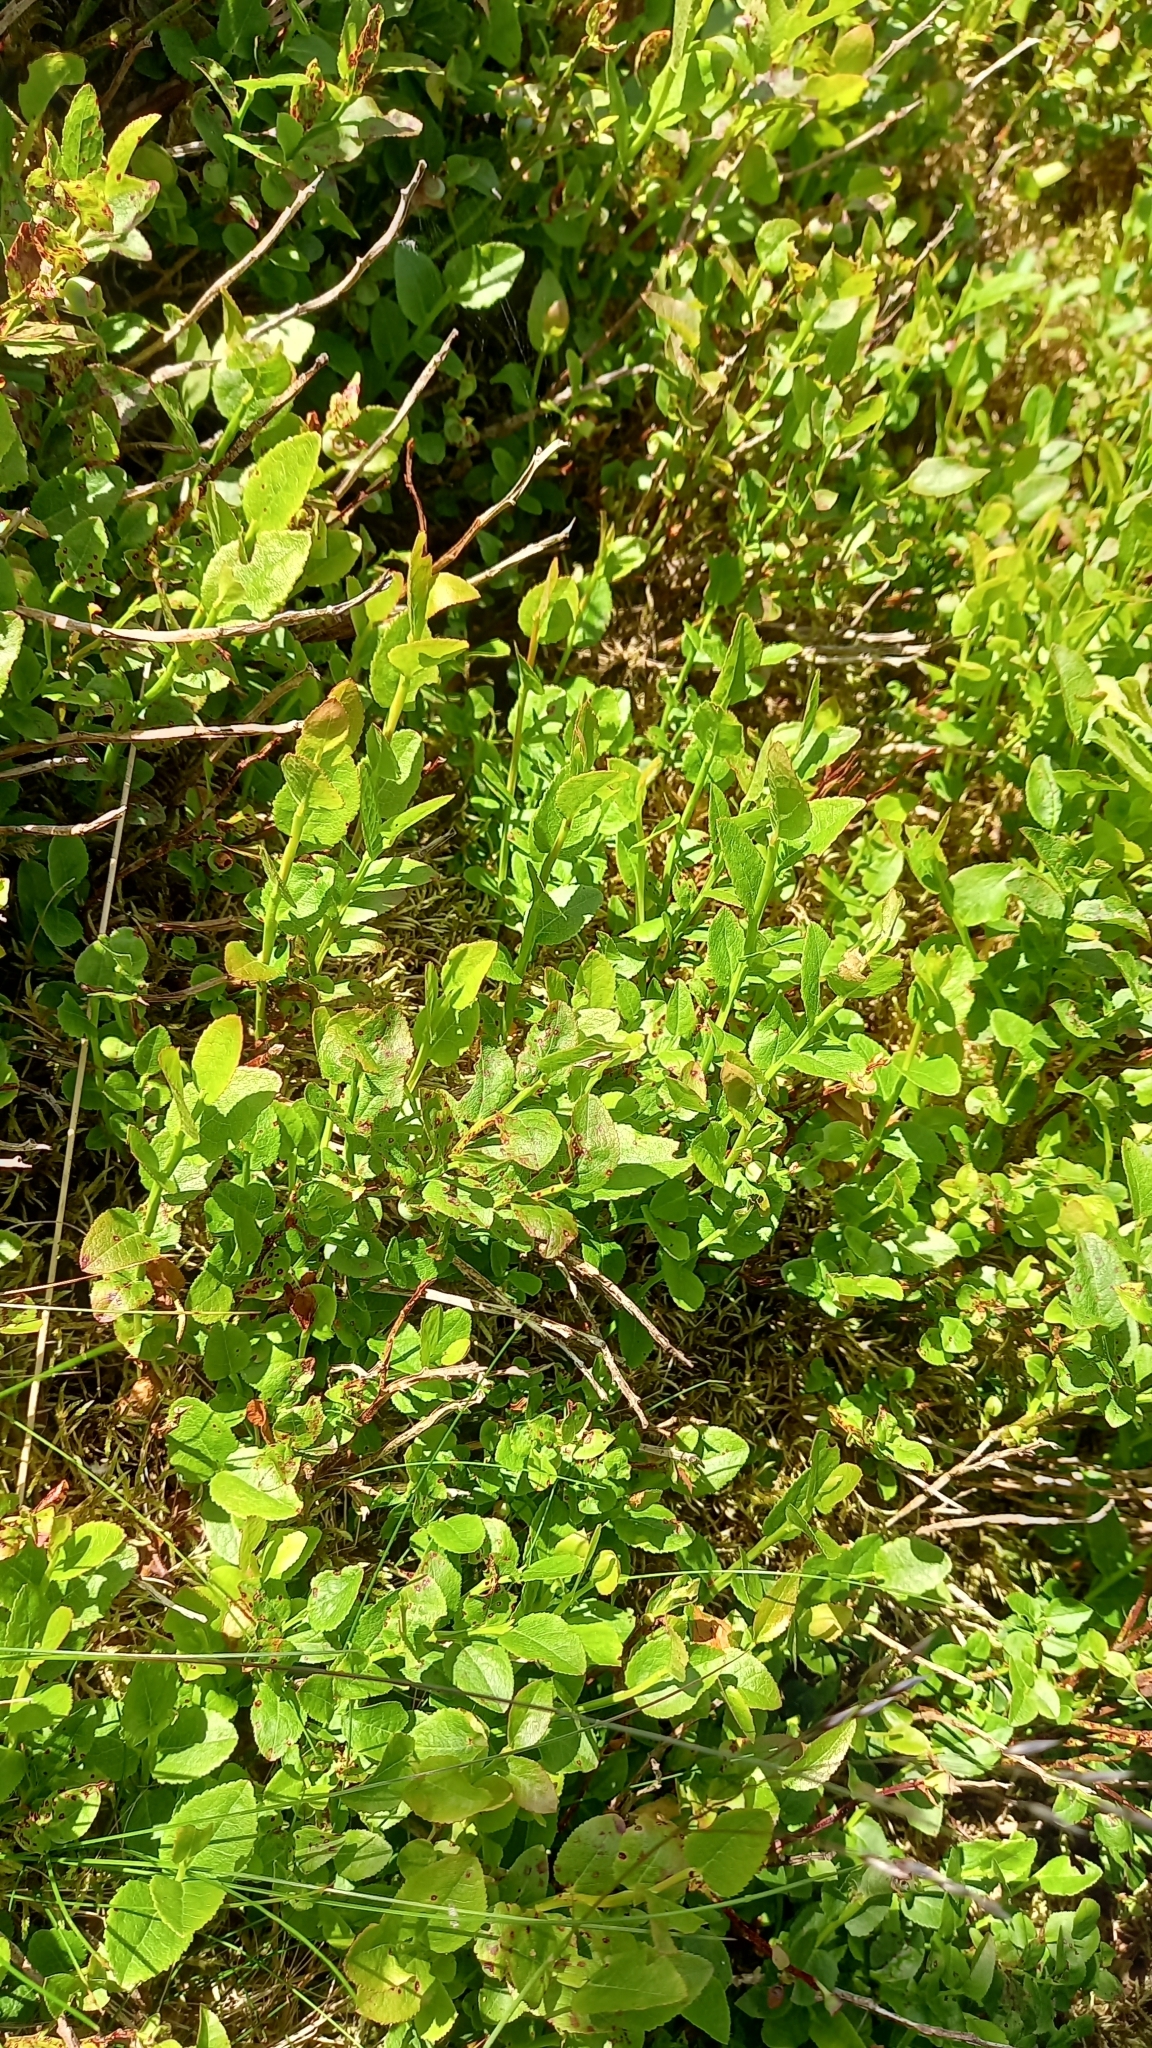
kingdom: Plantae
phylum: Tracheophyta
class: Magnoliopsida
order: Ericales
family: Ericaceae
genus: Vaccinium
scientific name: Vaccinium myrtillus
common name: Bilberry
